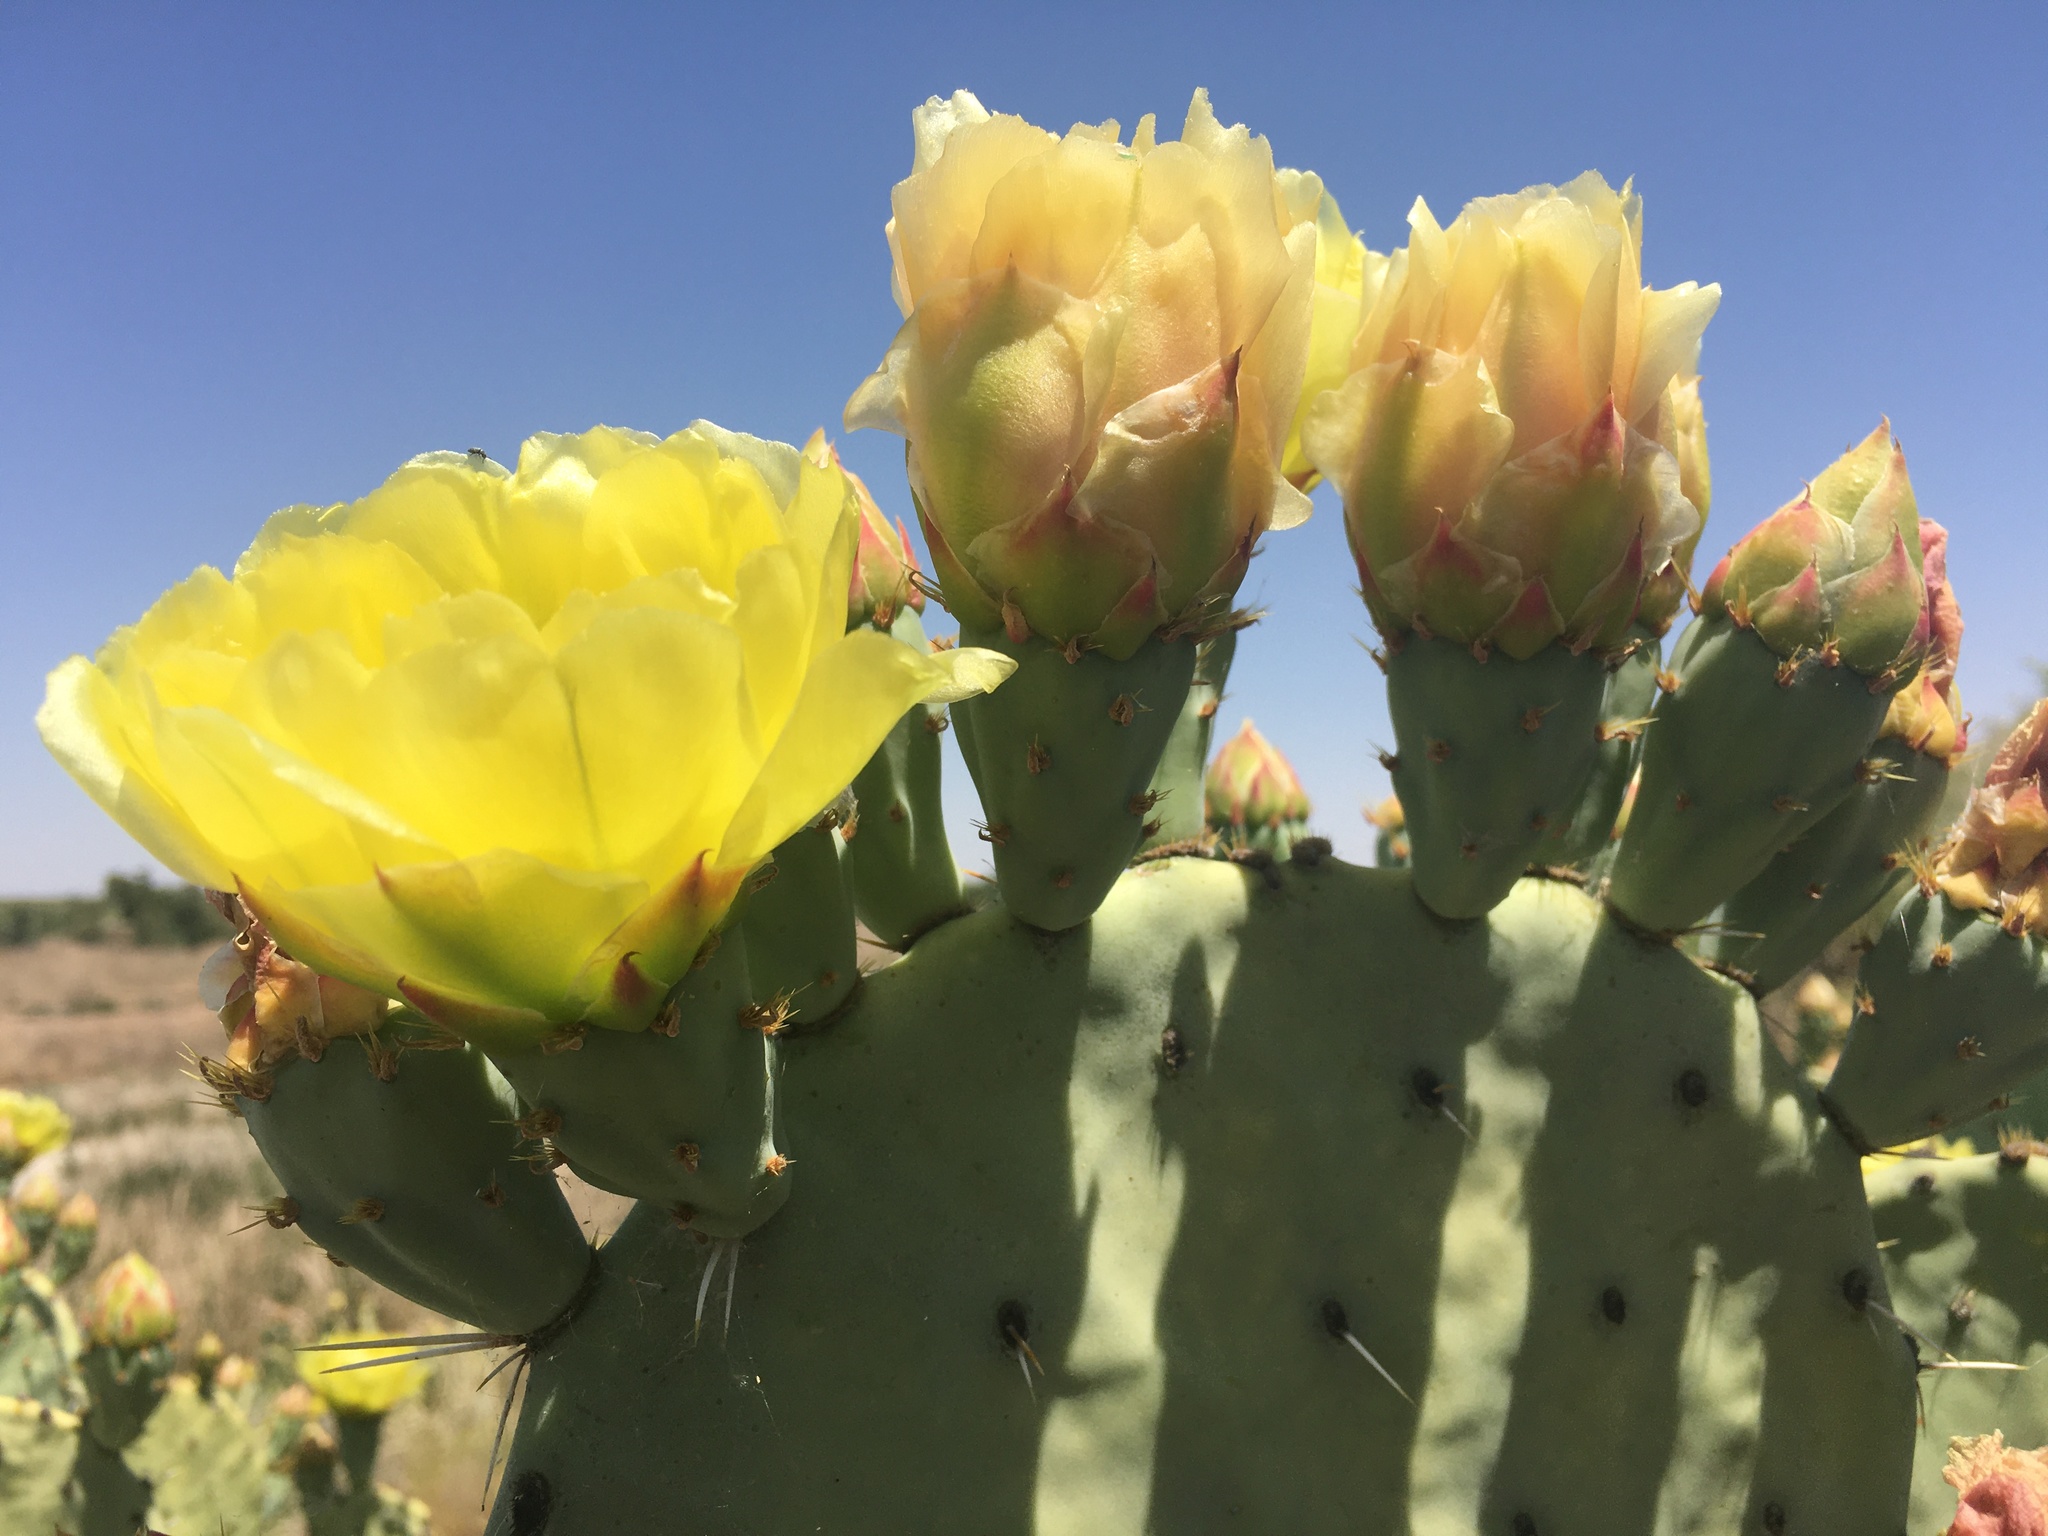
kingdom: Plantae
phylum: Tracheophyta
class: Magnoliopsida
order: Caryophyllales
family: Cactaceae
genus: Opuntia
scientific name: Opuntia orbiculata
